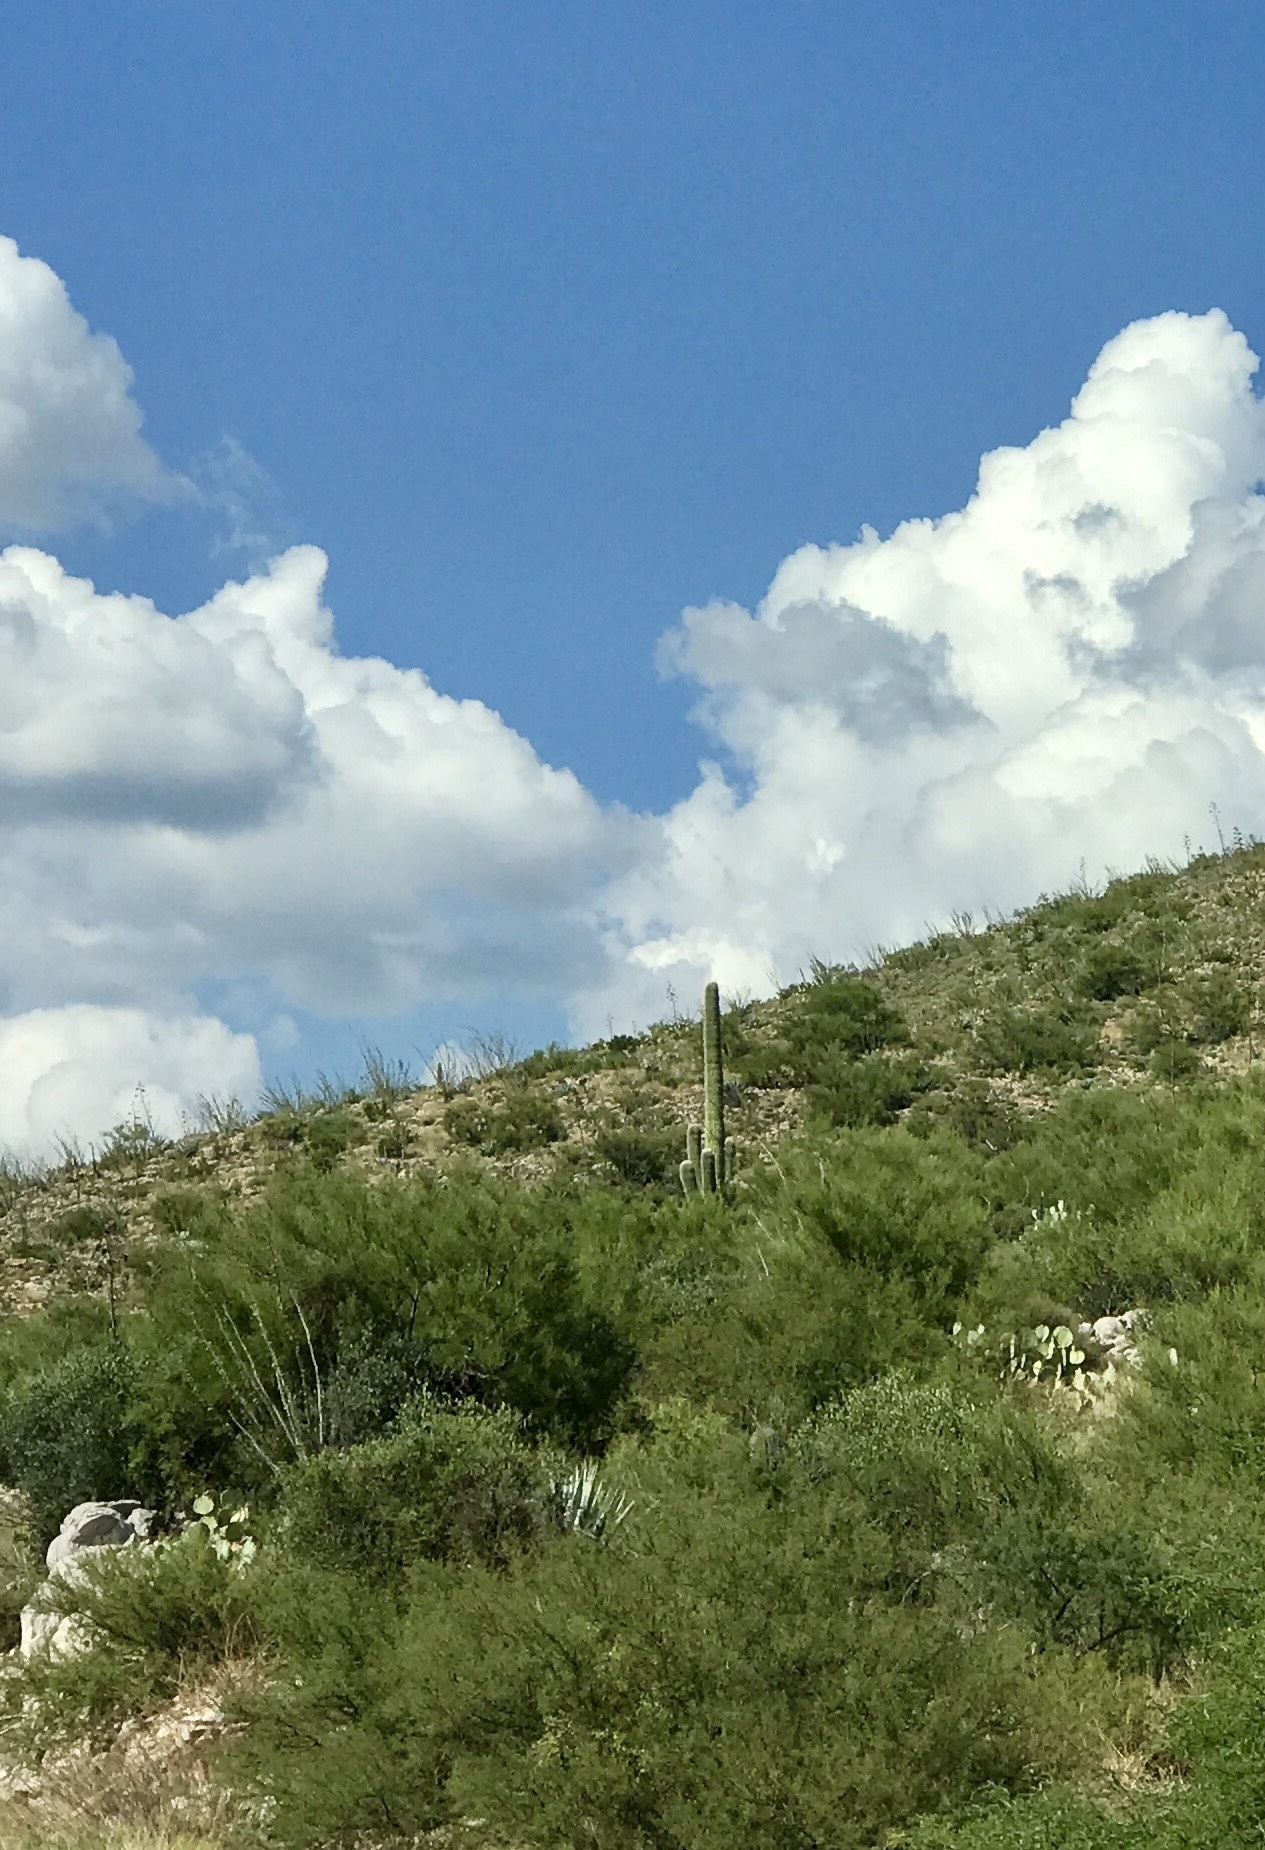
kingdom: Plantae
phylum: Tracheophyta
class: Magnoliopsida
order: Caryophyllales
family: Cactaceae
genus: Carnegiea
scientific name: Carnegiea gigantea
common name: Saguaro
